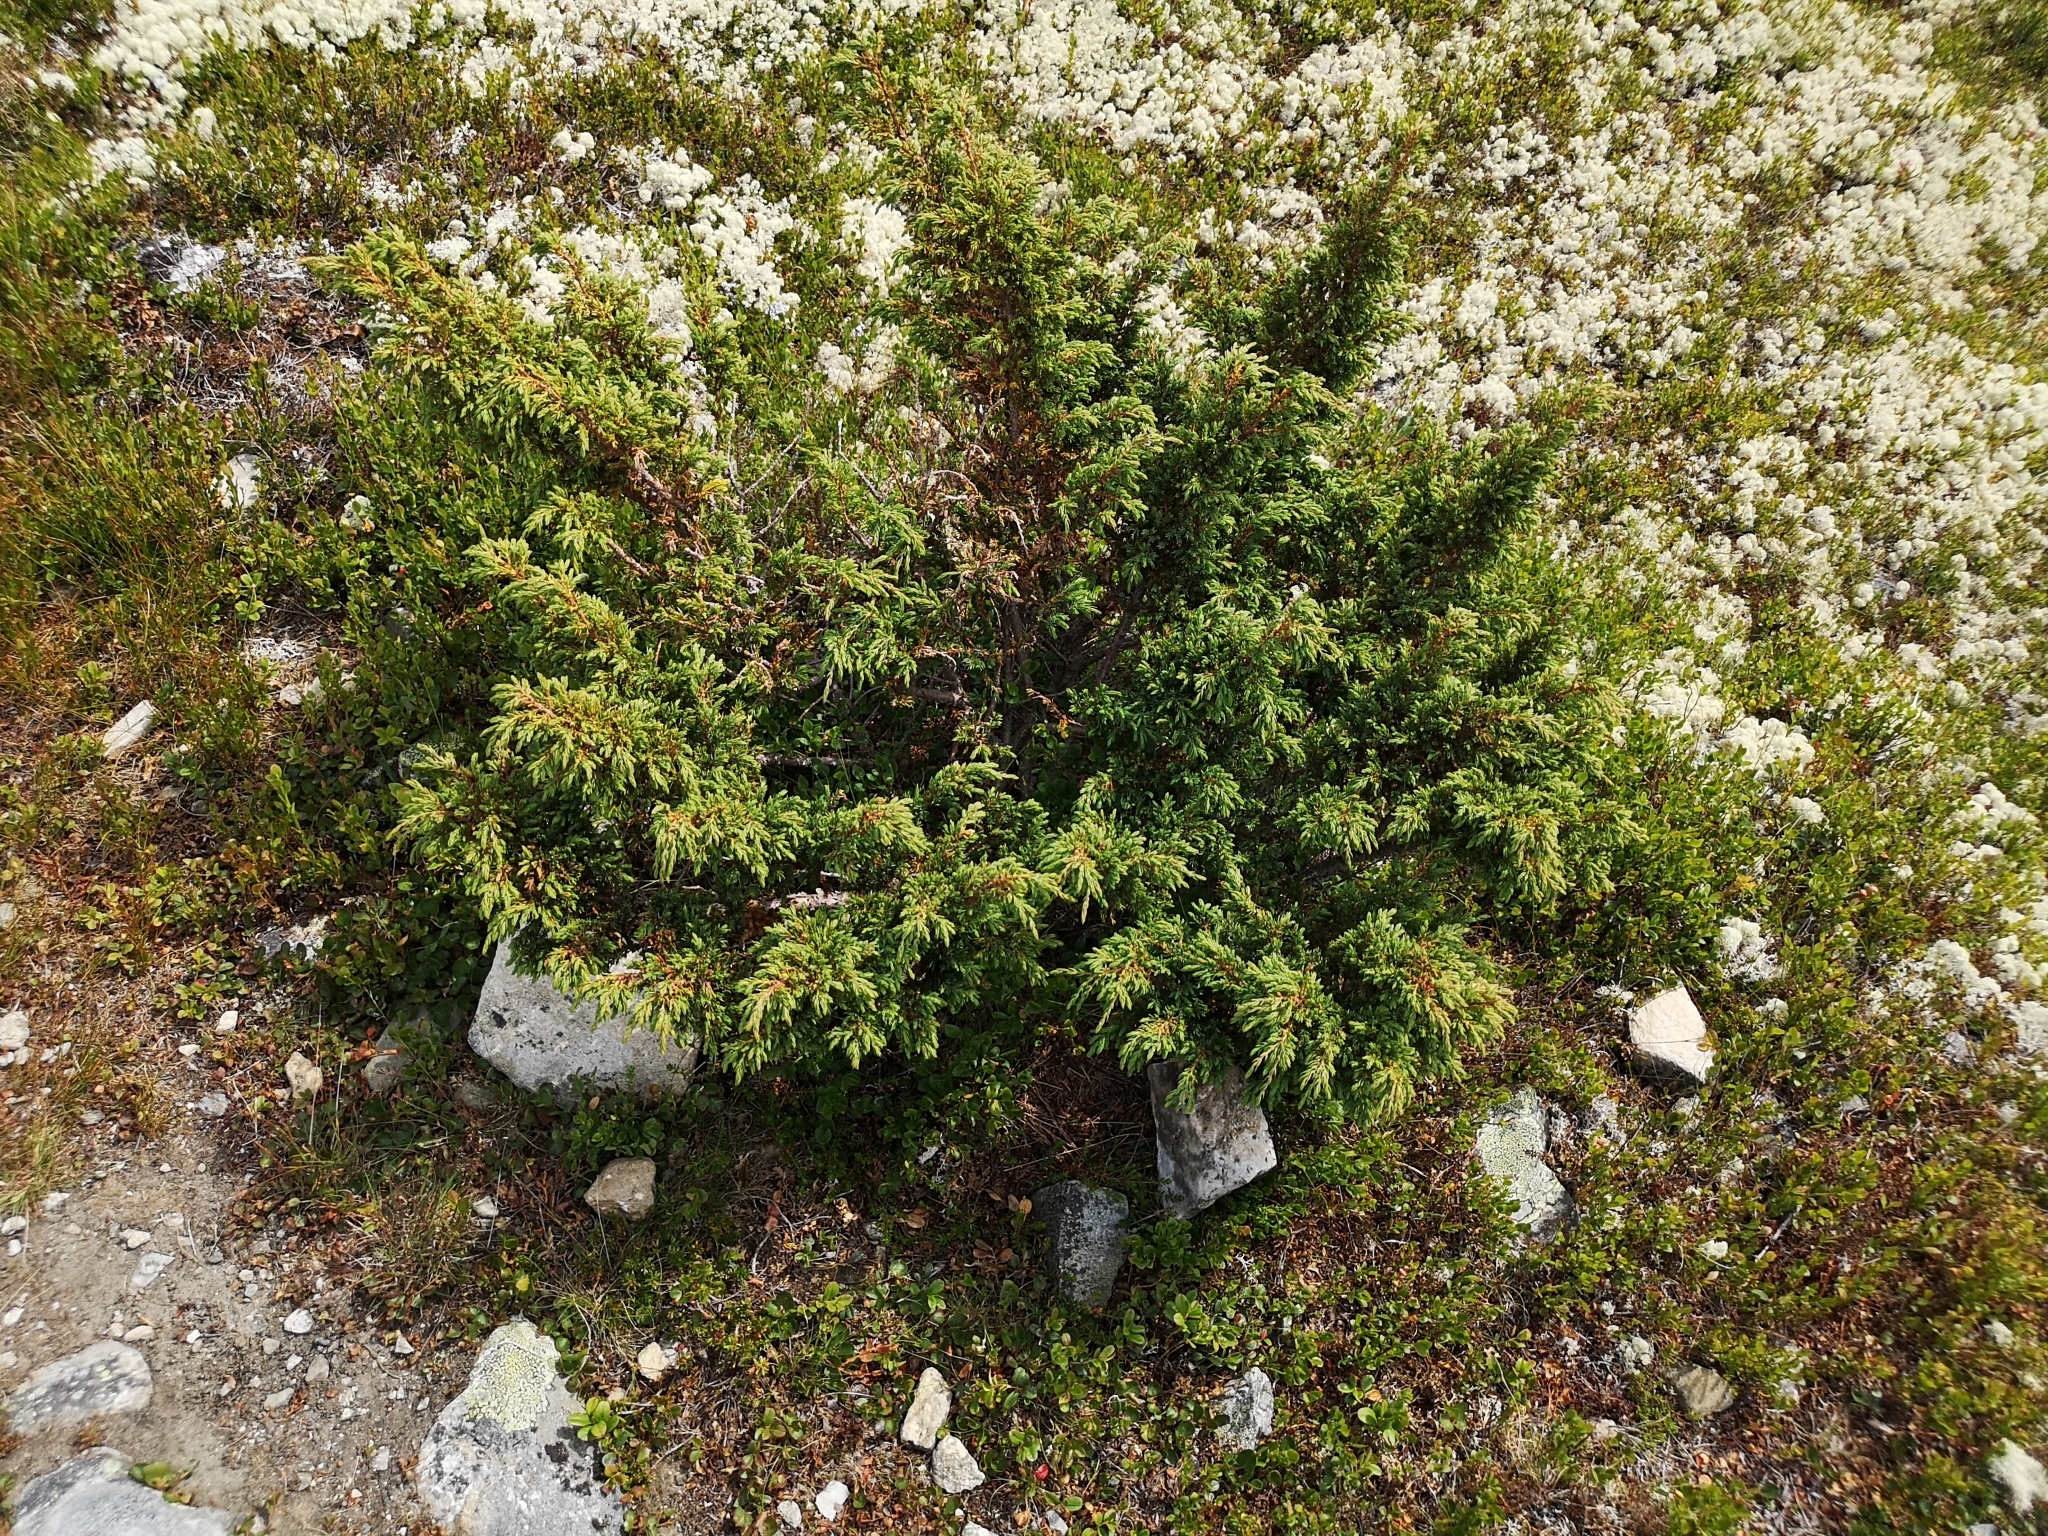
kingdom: Plantae
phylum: Tracheophyta
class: Pinopsida
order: Pinales
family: Cupressaceae
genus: Juniperus
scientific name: Juniperus communis
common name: Common juniper
